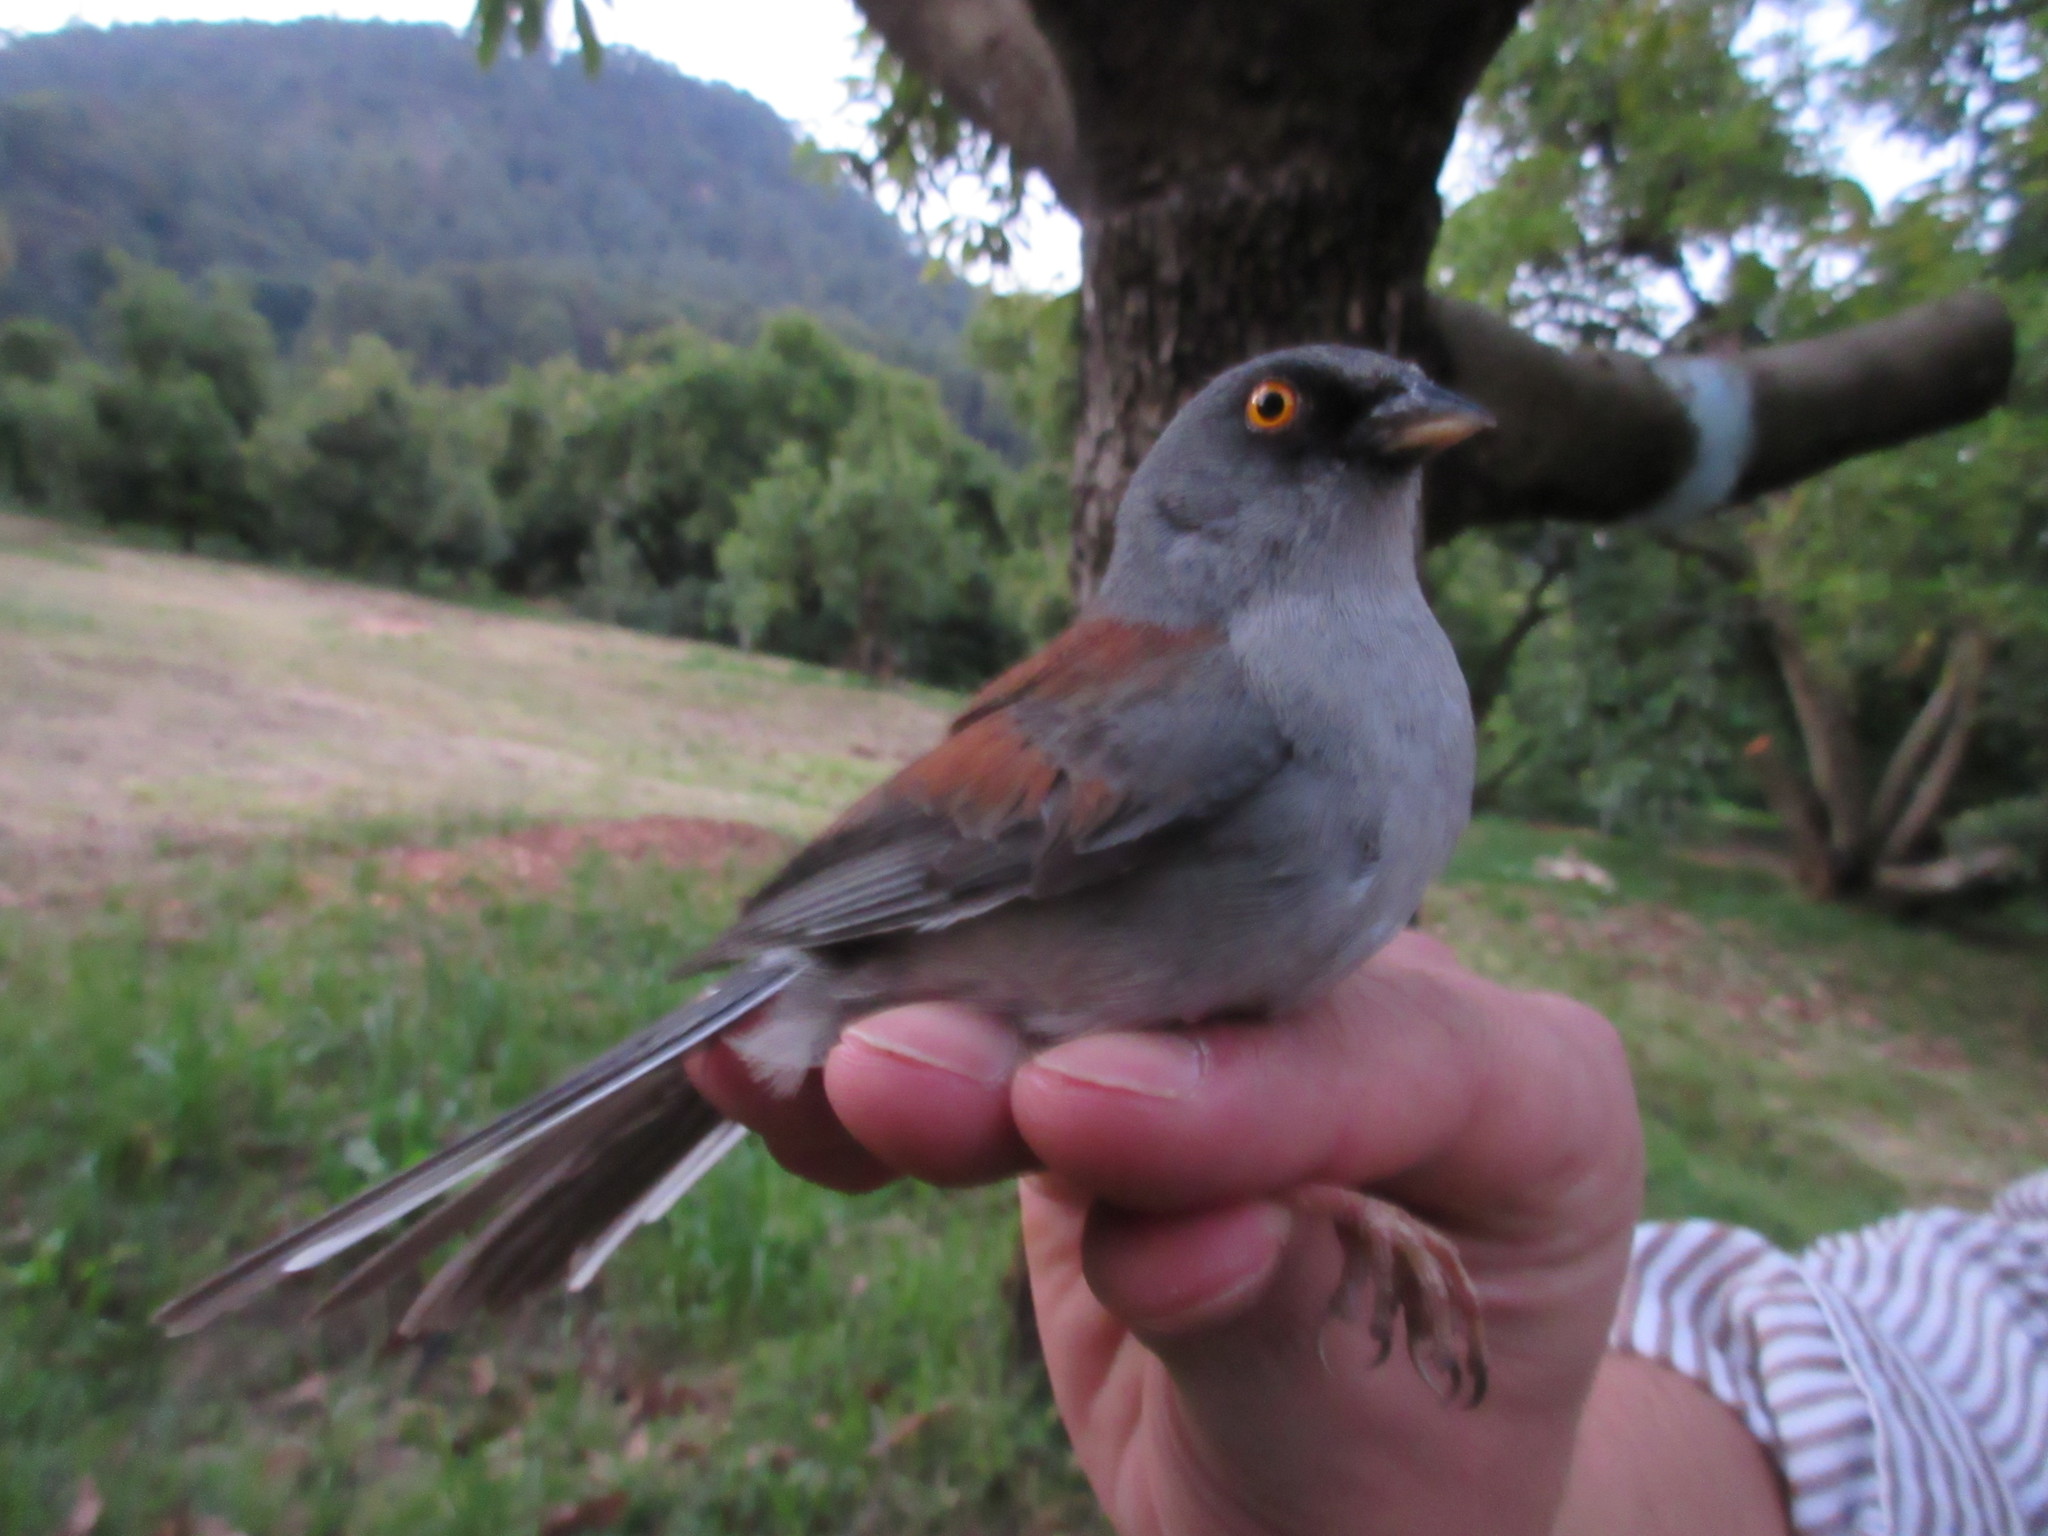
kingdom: Animalia
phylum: Chordata
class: Aves
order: Passeriformes
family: Passerellidae
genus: Junco
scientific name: Junco phaeonotus
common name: Yellow-eyed junco
